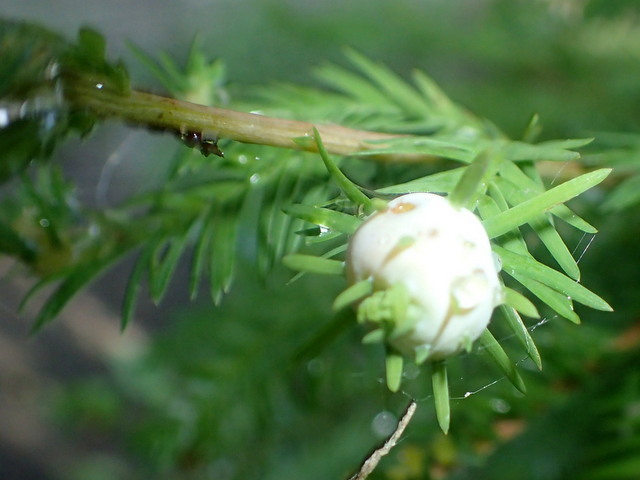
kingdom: Animalia
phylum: Arthropoda
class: Insecta
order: Diptera
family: Cecidomyiidae
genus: Taxodiomyia
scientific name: Taxodiomyia cupressiananassa
